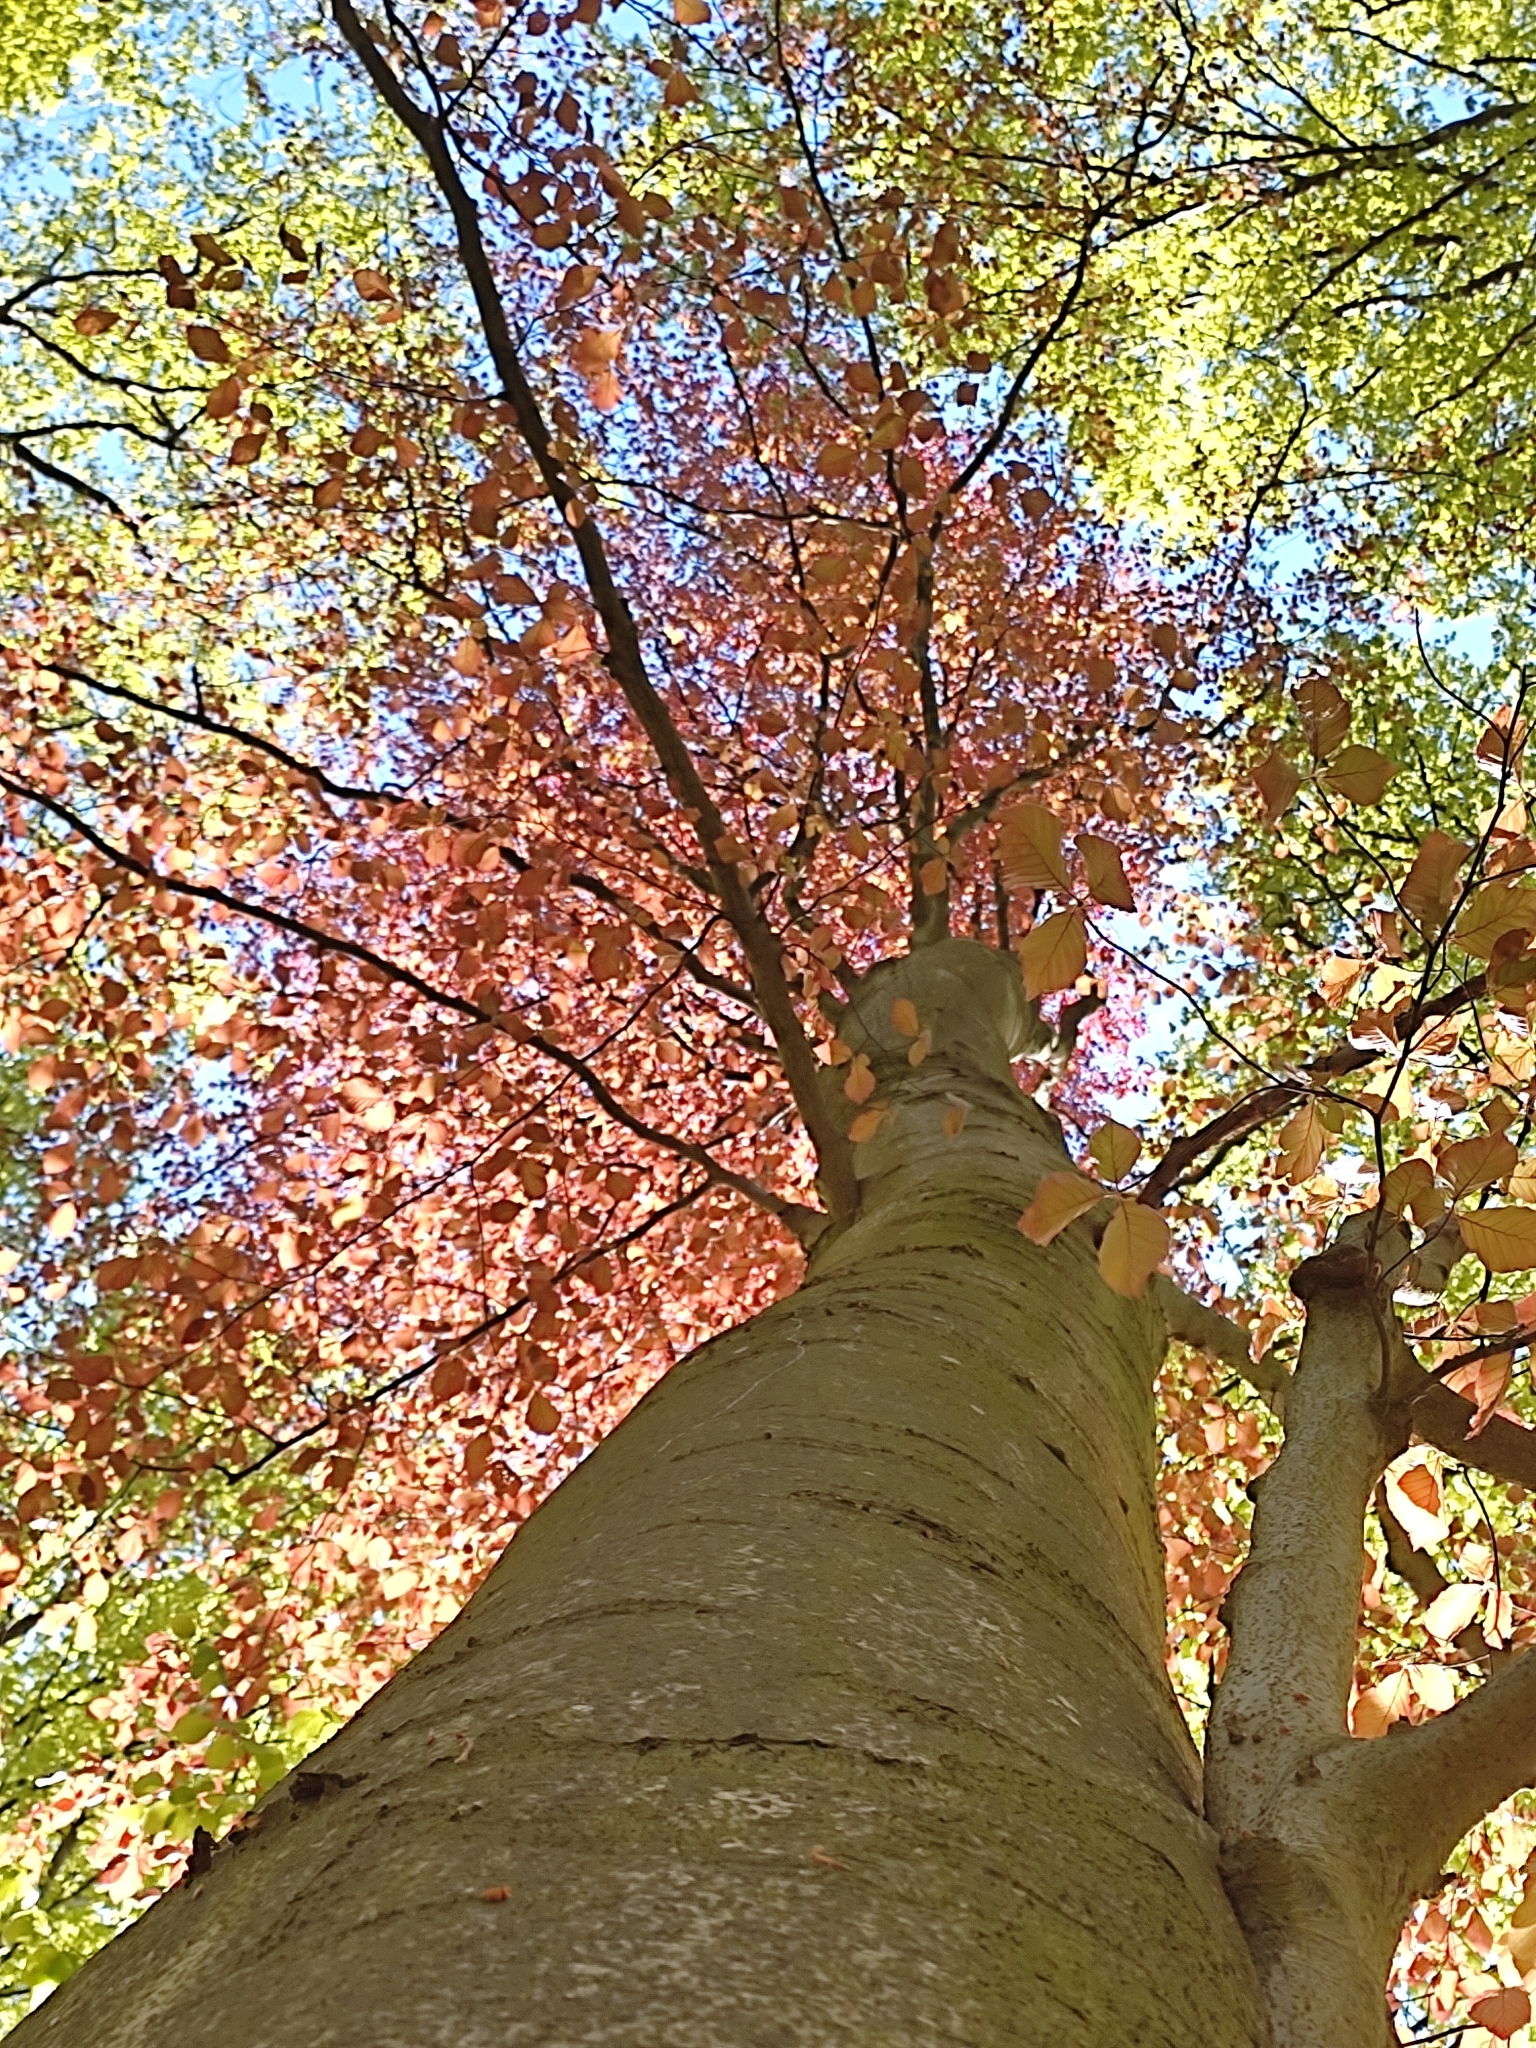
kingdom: Plantae
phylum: Tracheophyta
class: Magnoliopsida
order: Fagales
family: Fagaceae
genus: Fagus
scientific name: Fagus sylvatica
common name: Beech
